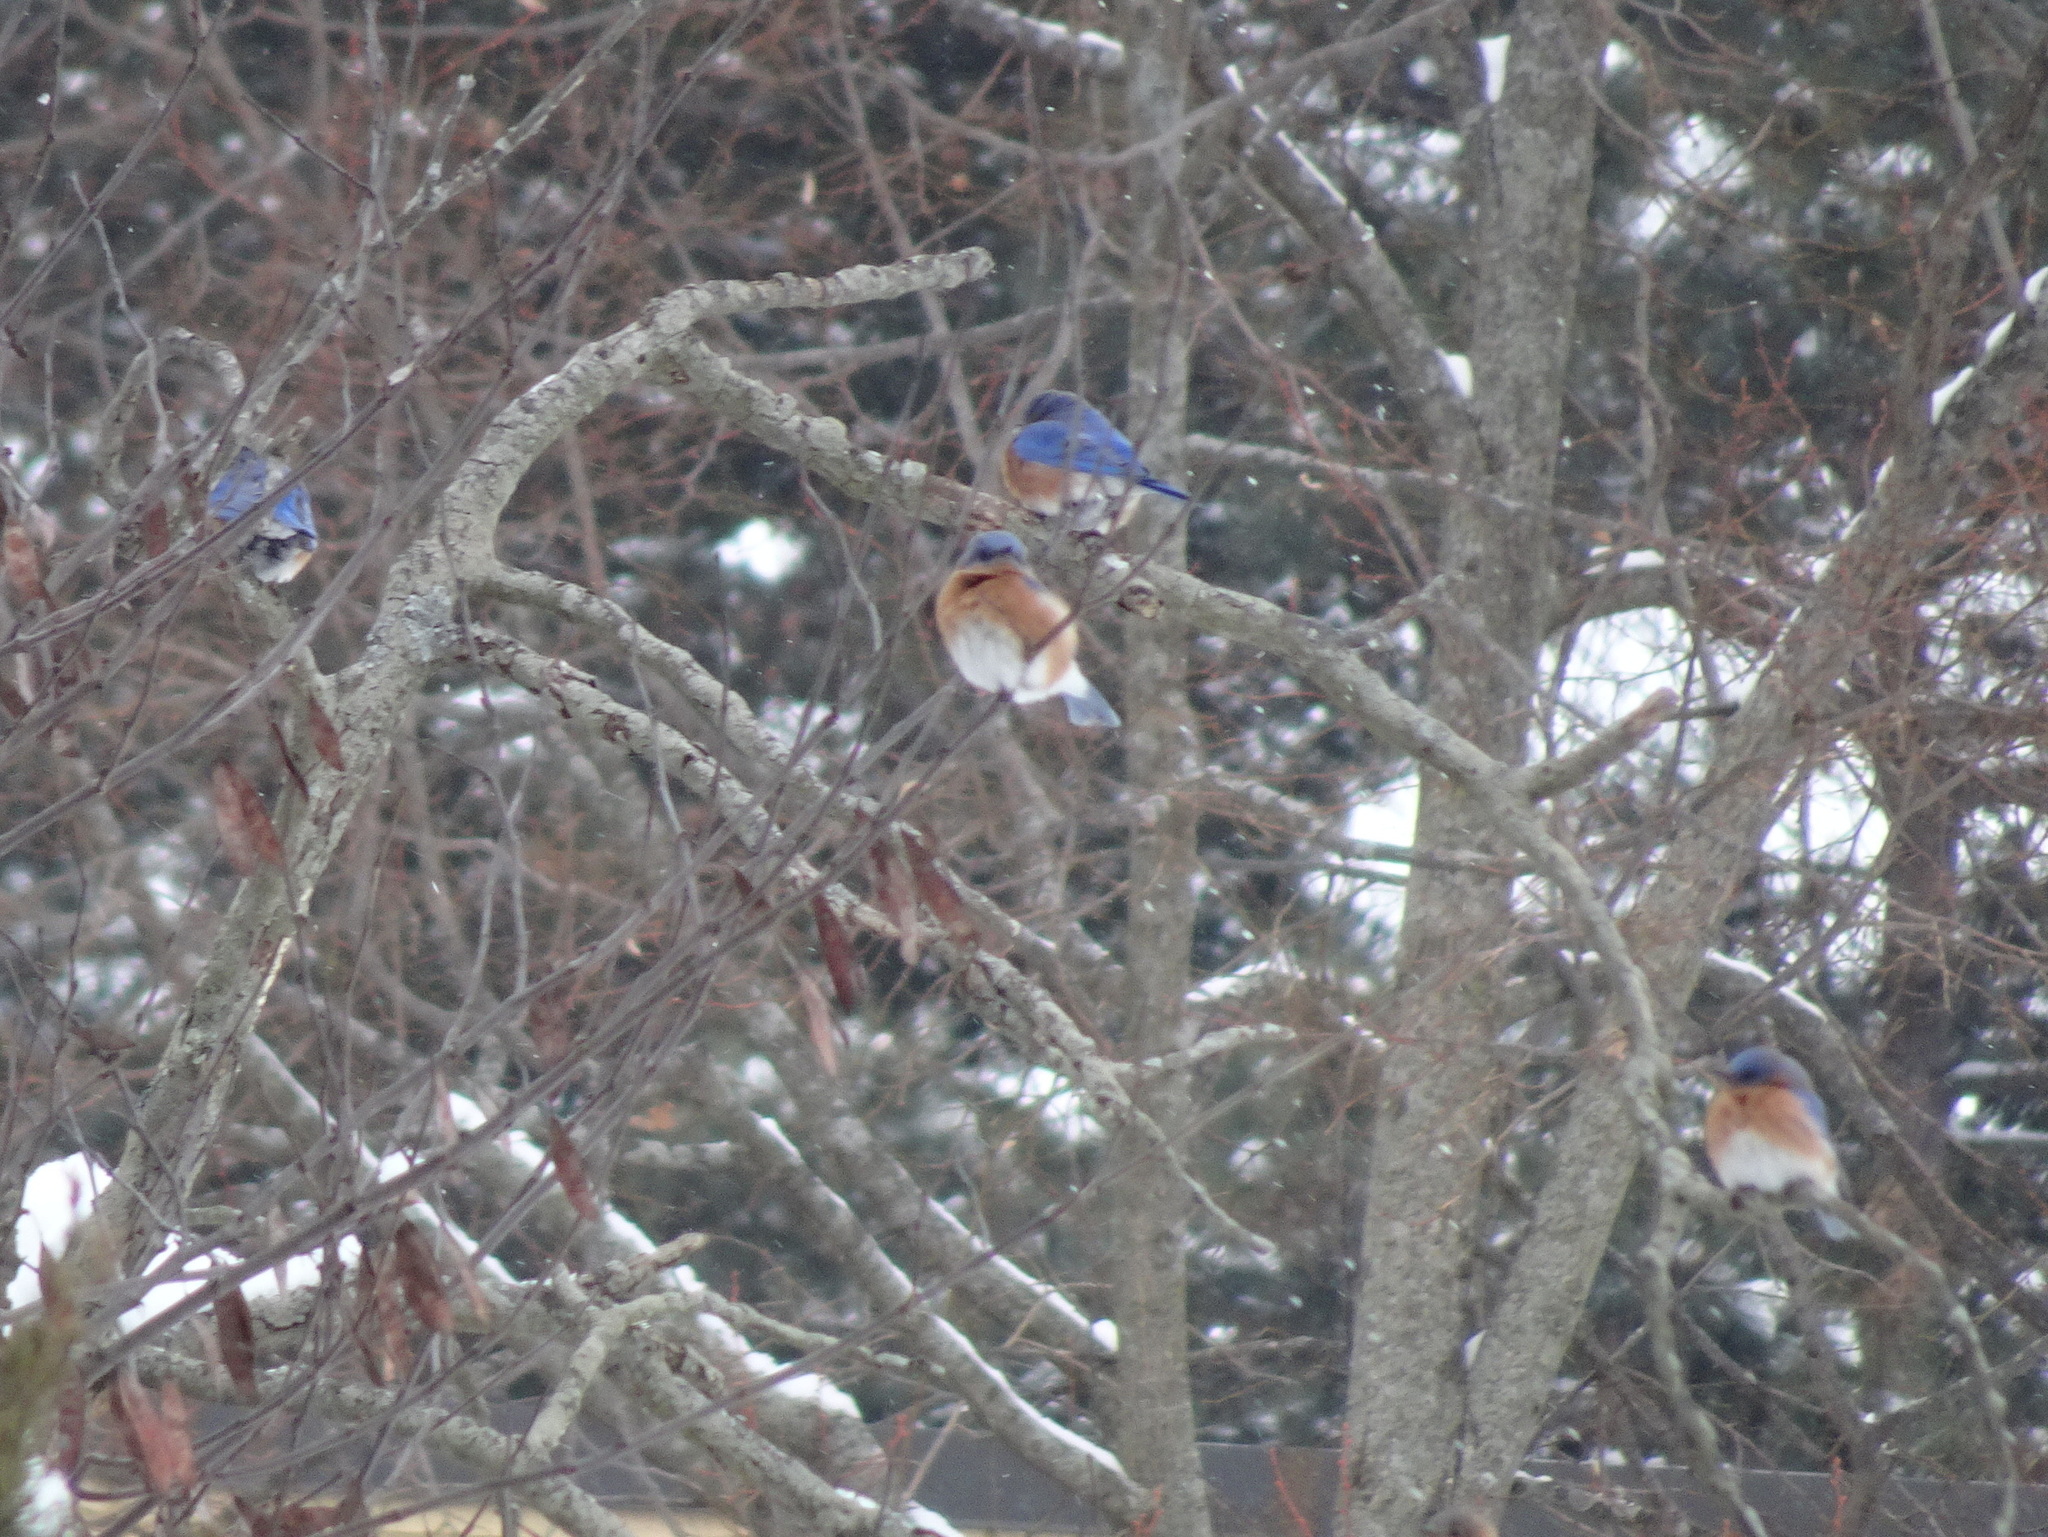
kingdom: Animalia
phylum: Chordata
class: Aves
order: Passeriformes
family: Turdidae
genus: Sialia
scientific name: Sialia sialis
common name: Eastern bluebird
